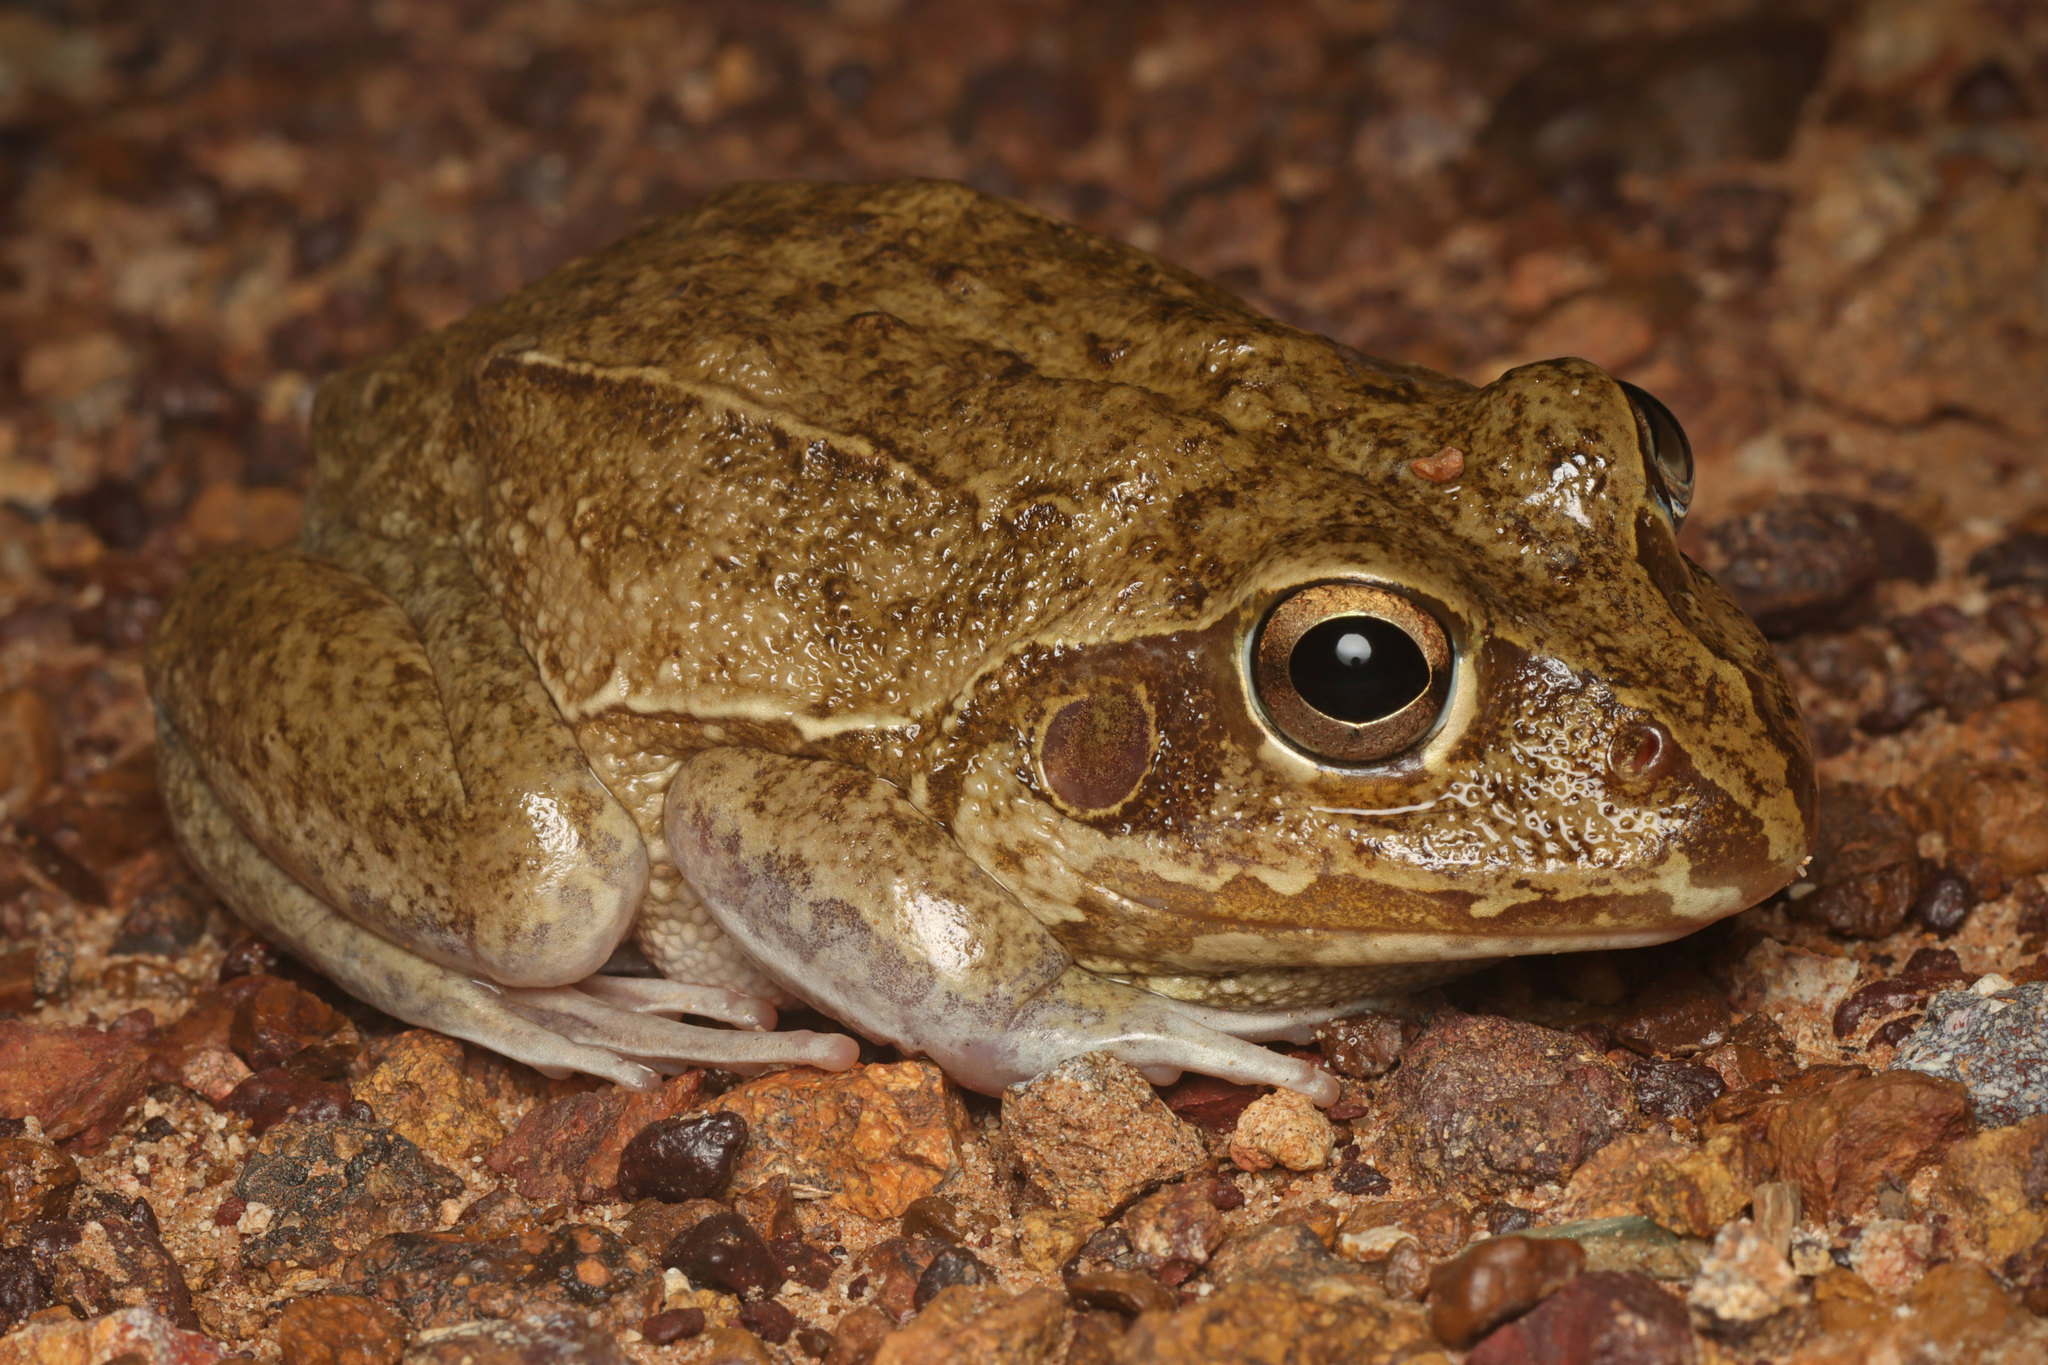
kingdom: Animalia
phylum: Chordata
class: Amphibia
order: Anura
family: Pelodryadidae
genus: Ranoidea
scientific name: Ranoidea australis
